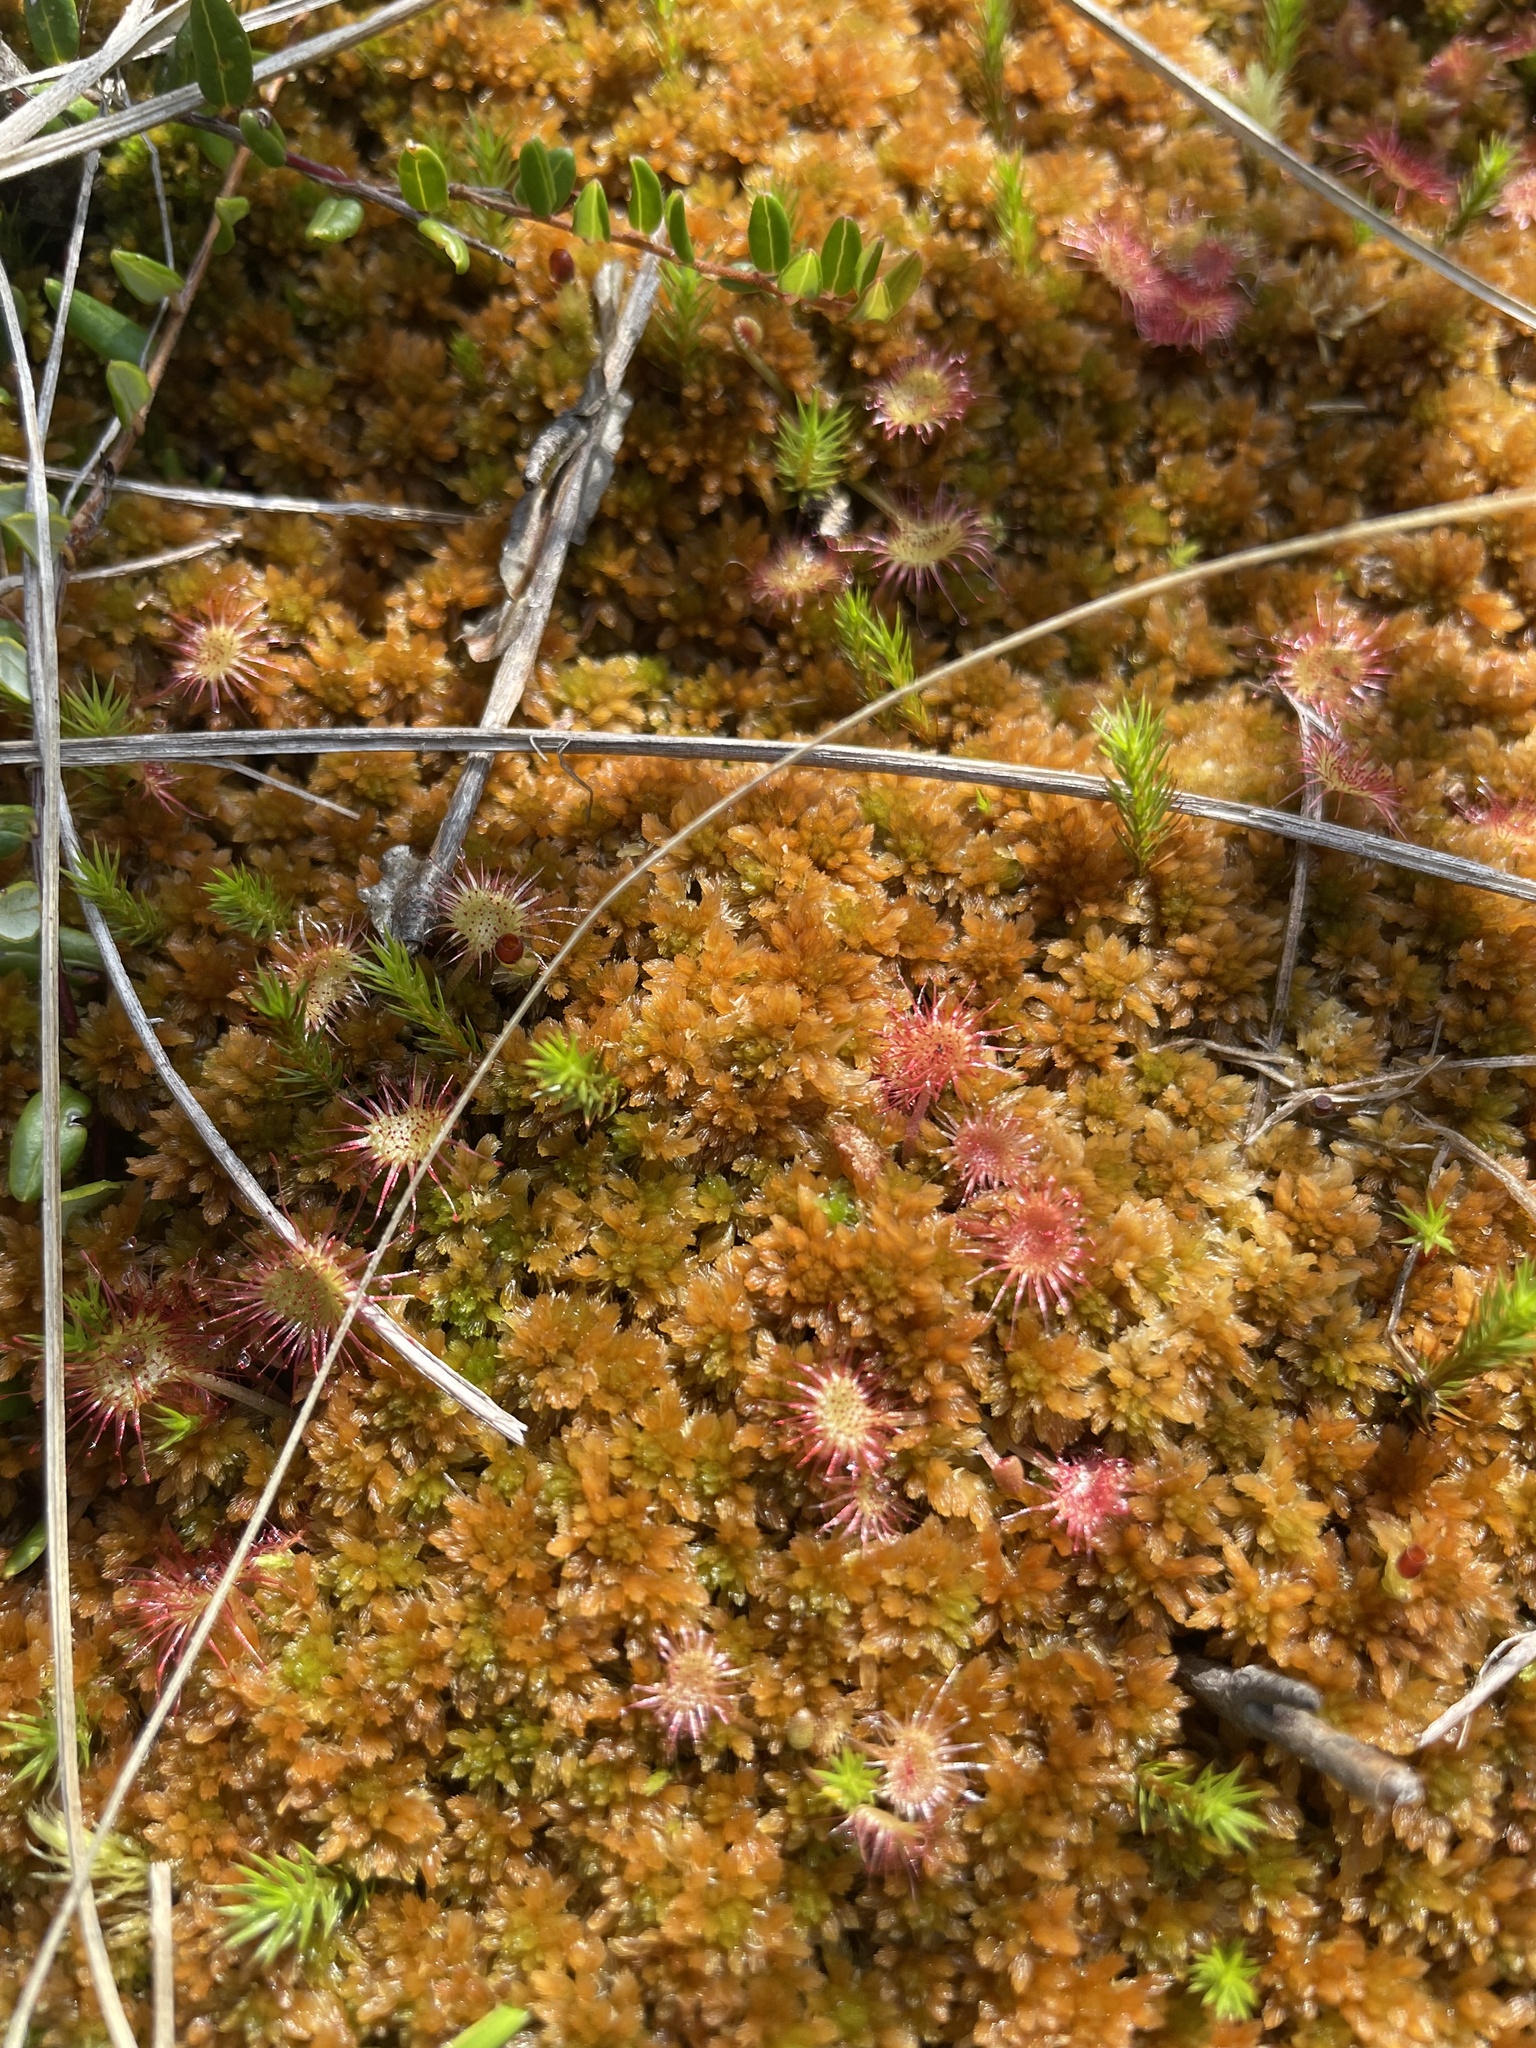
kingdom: Plantae
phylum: Tracheophyta
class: Magnoliopsida
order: Caryophyllales
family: Droseraceae
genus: Drosera
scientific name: Drosera rotundifolia
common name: Round-leaved sundew
